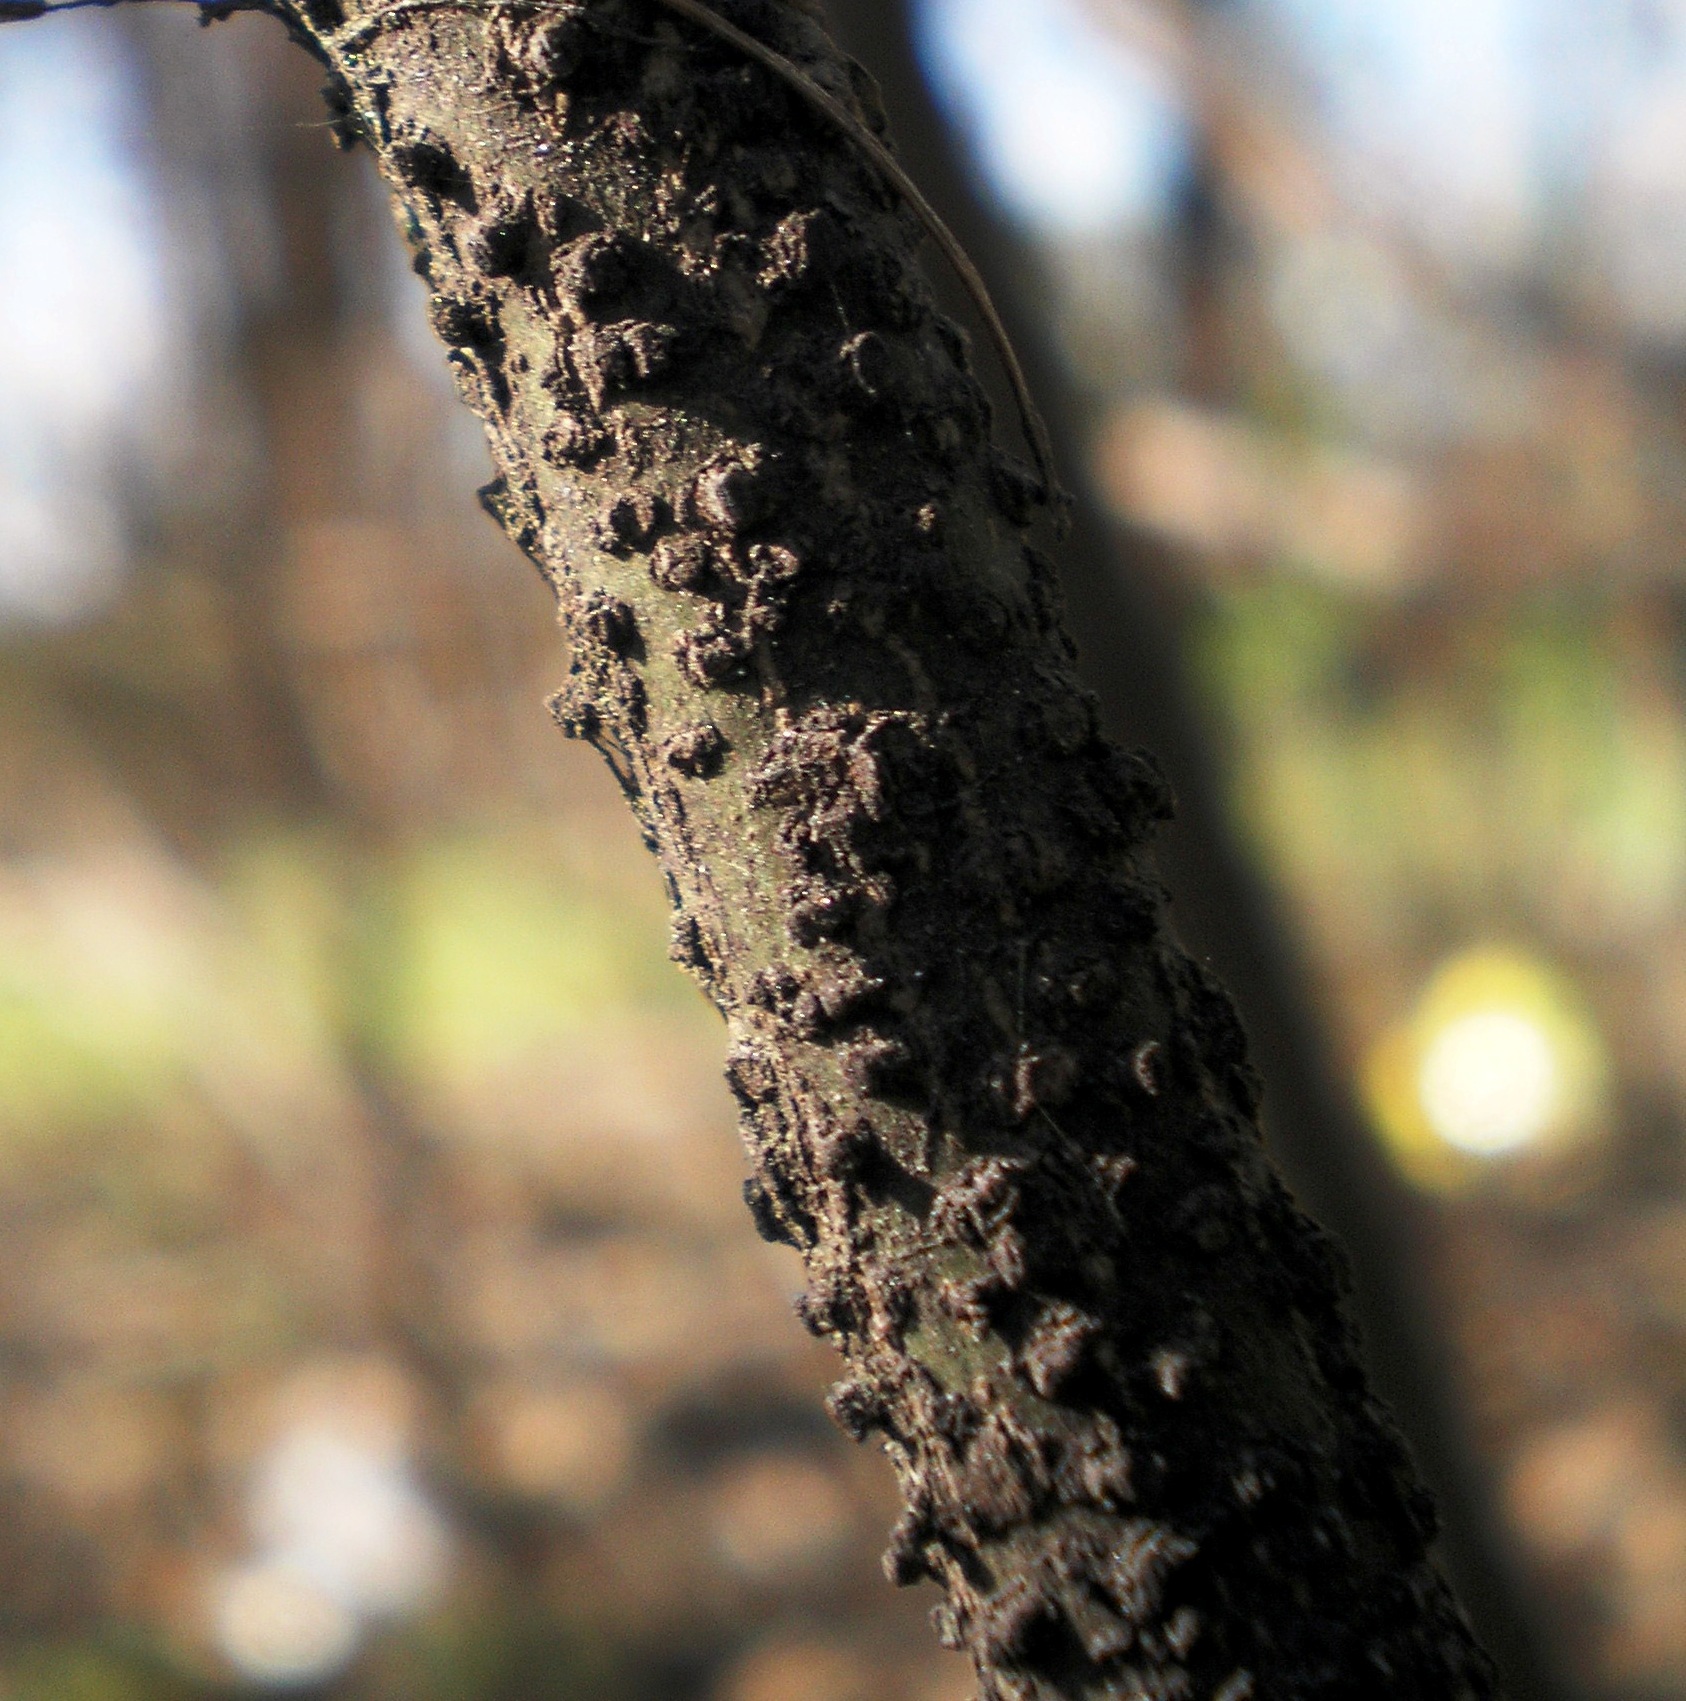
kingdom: Plantae
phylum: Tracheophyta
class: Magnoliopsida
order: Celastrales
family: Celastraceae
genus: Euonymus
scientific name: Euonymus verrucosus
